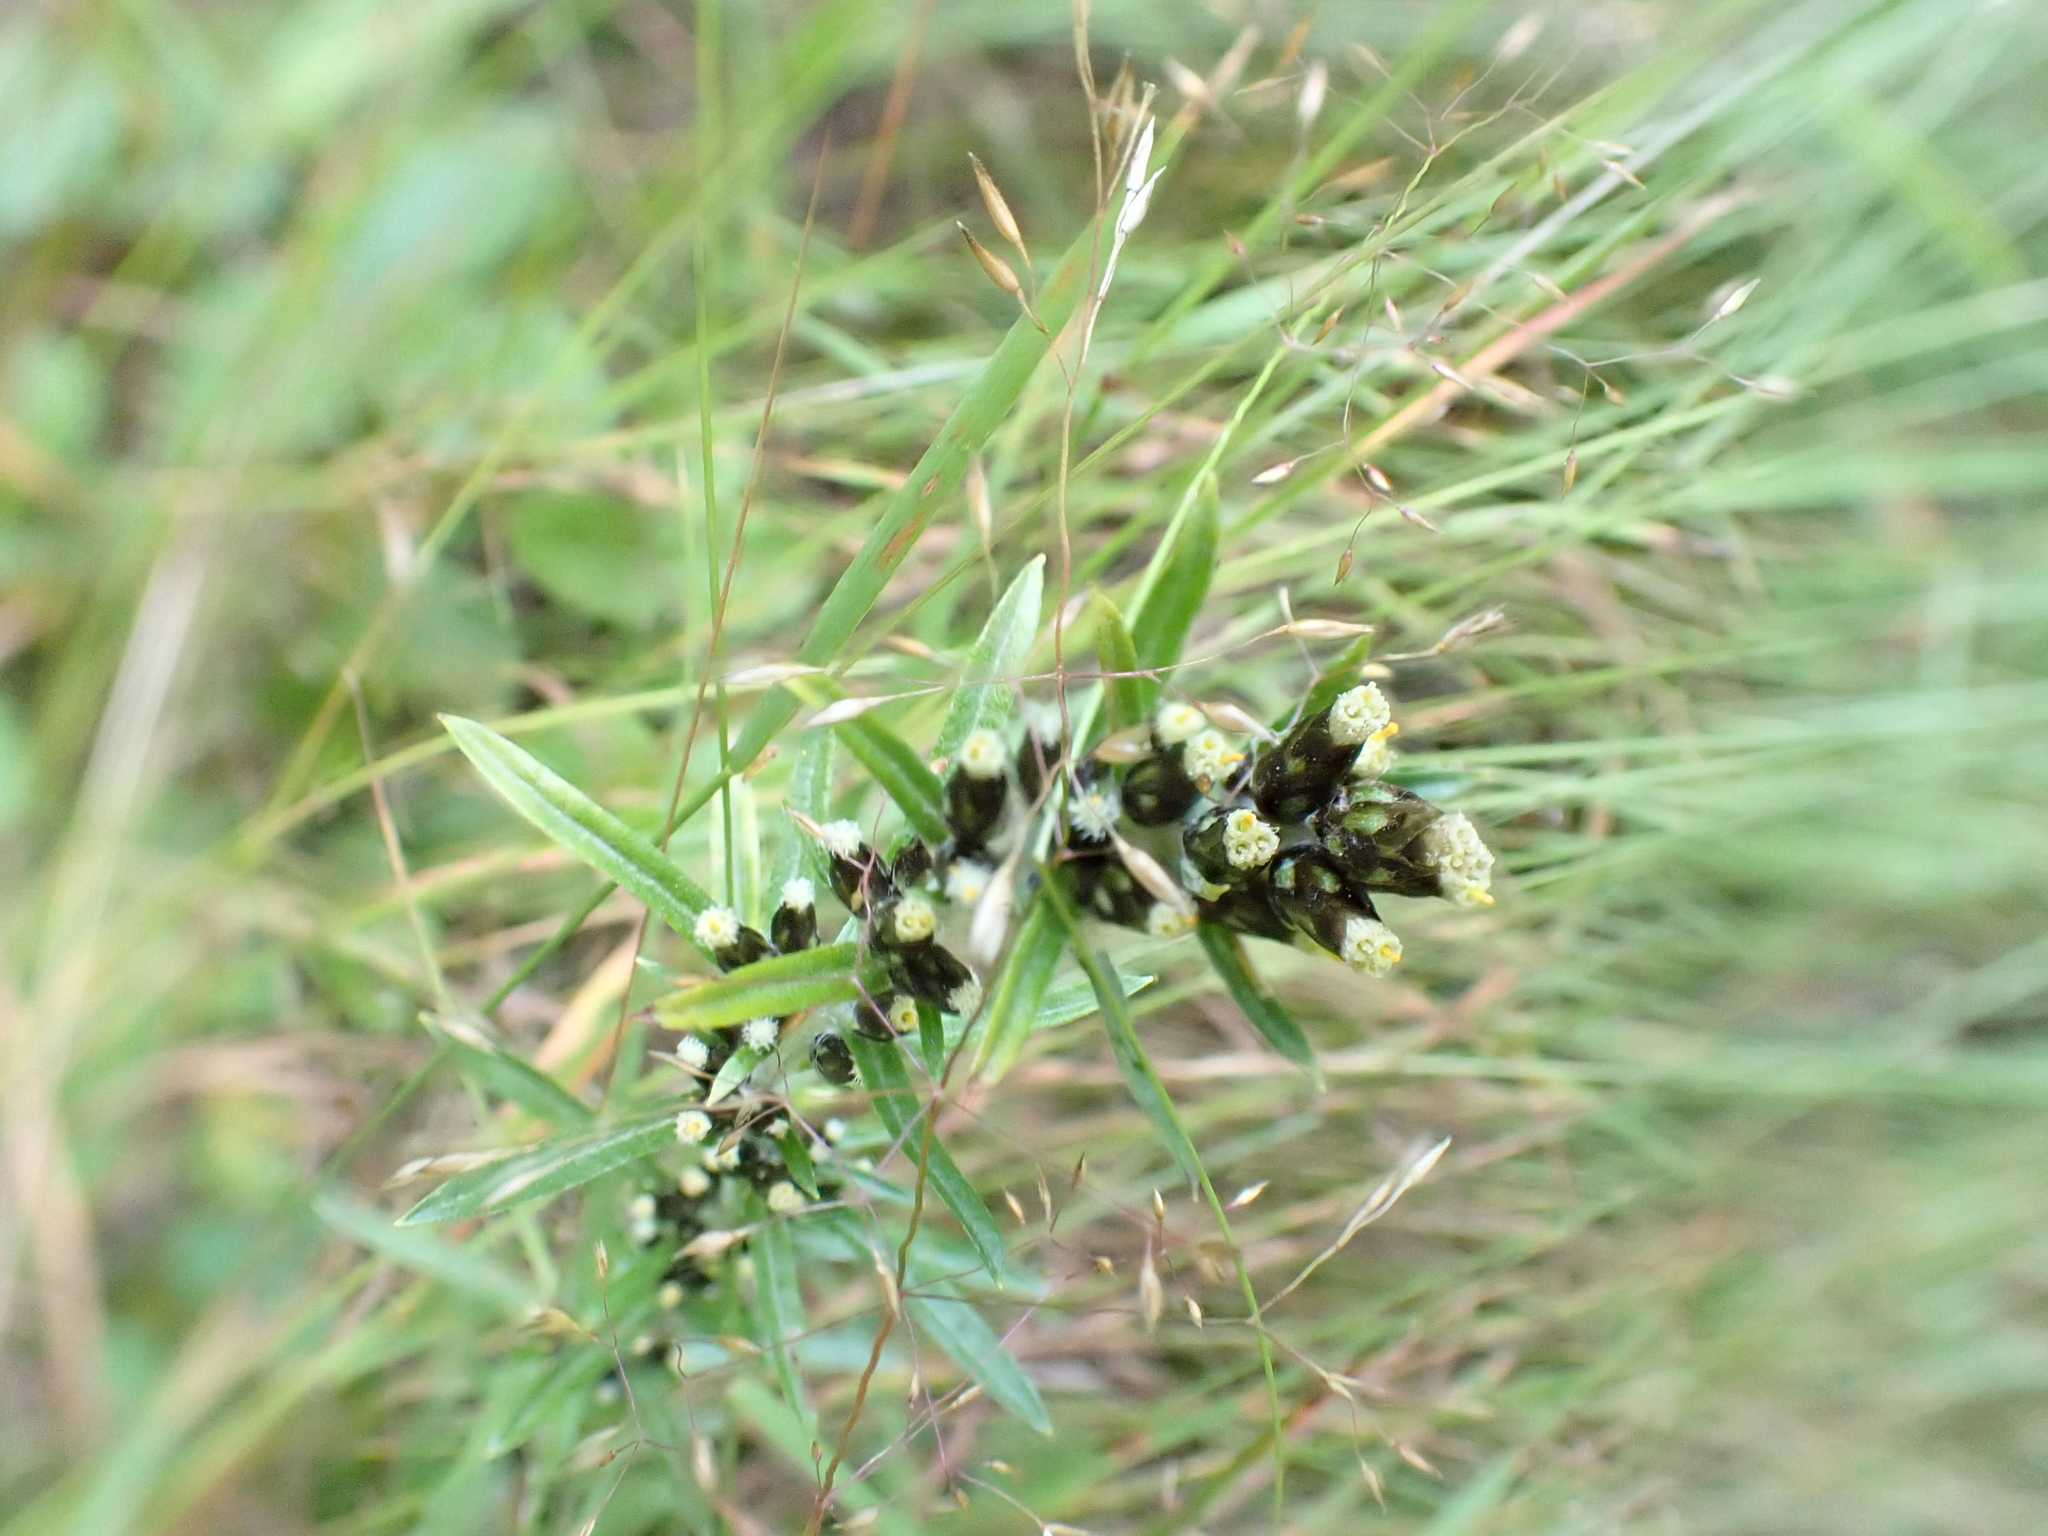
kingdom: Plantae
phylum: Tracheophyta
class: Magnoliopsida
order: Asterales
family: Asteraceae
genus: Omalotheca
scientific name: Omalotheca sylvatica
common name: Heath cudweed
